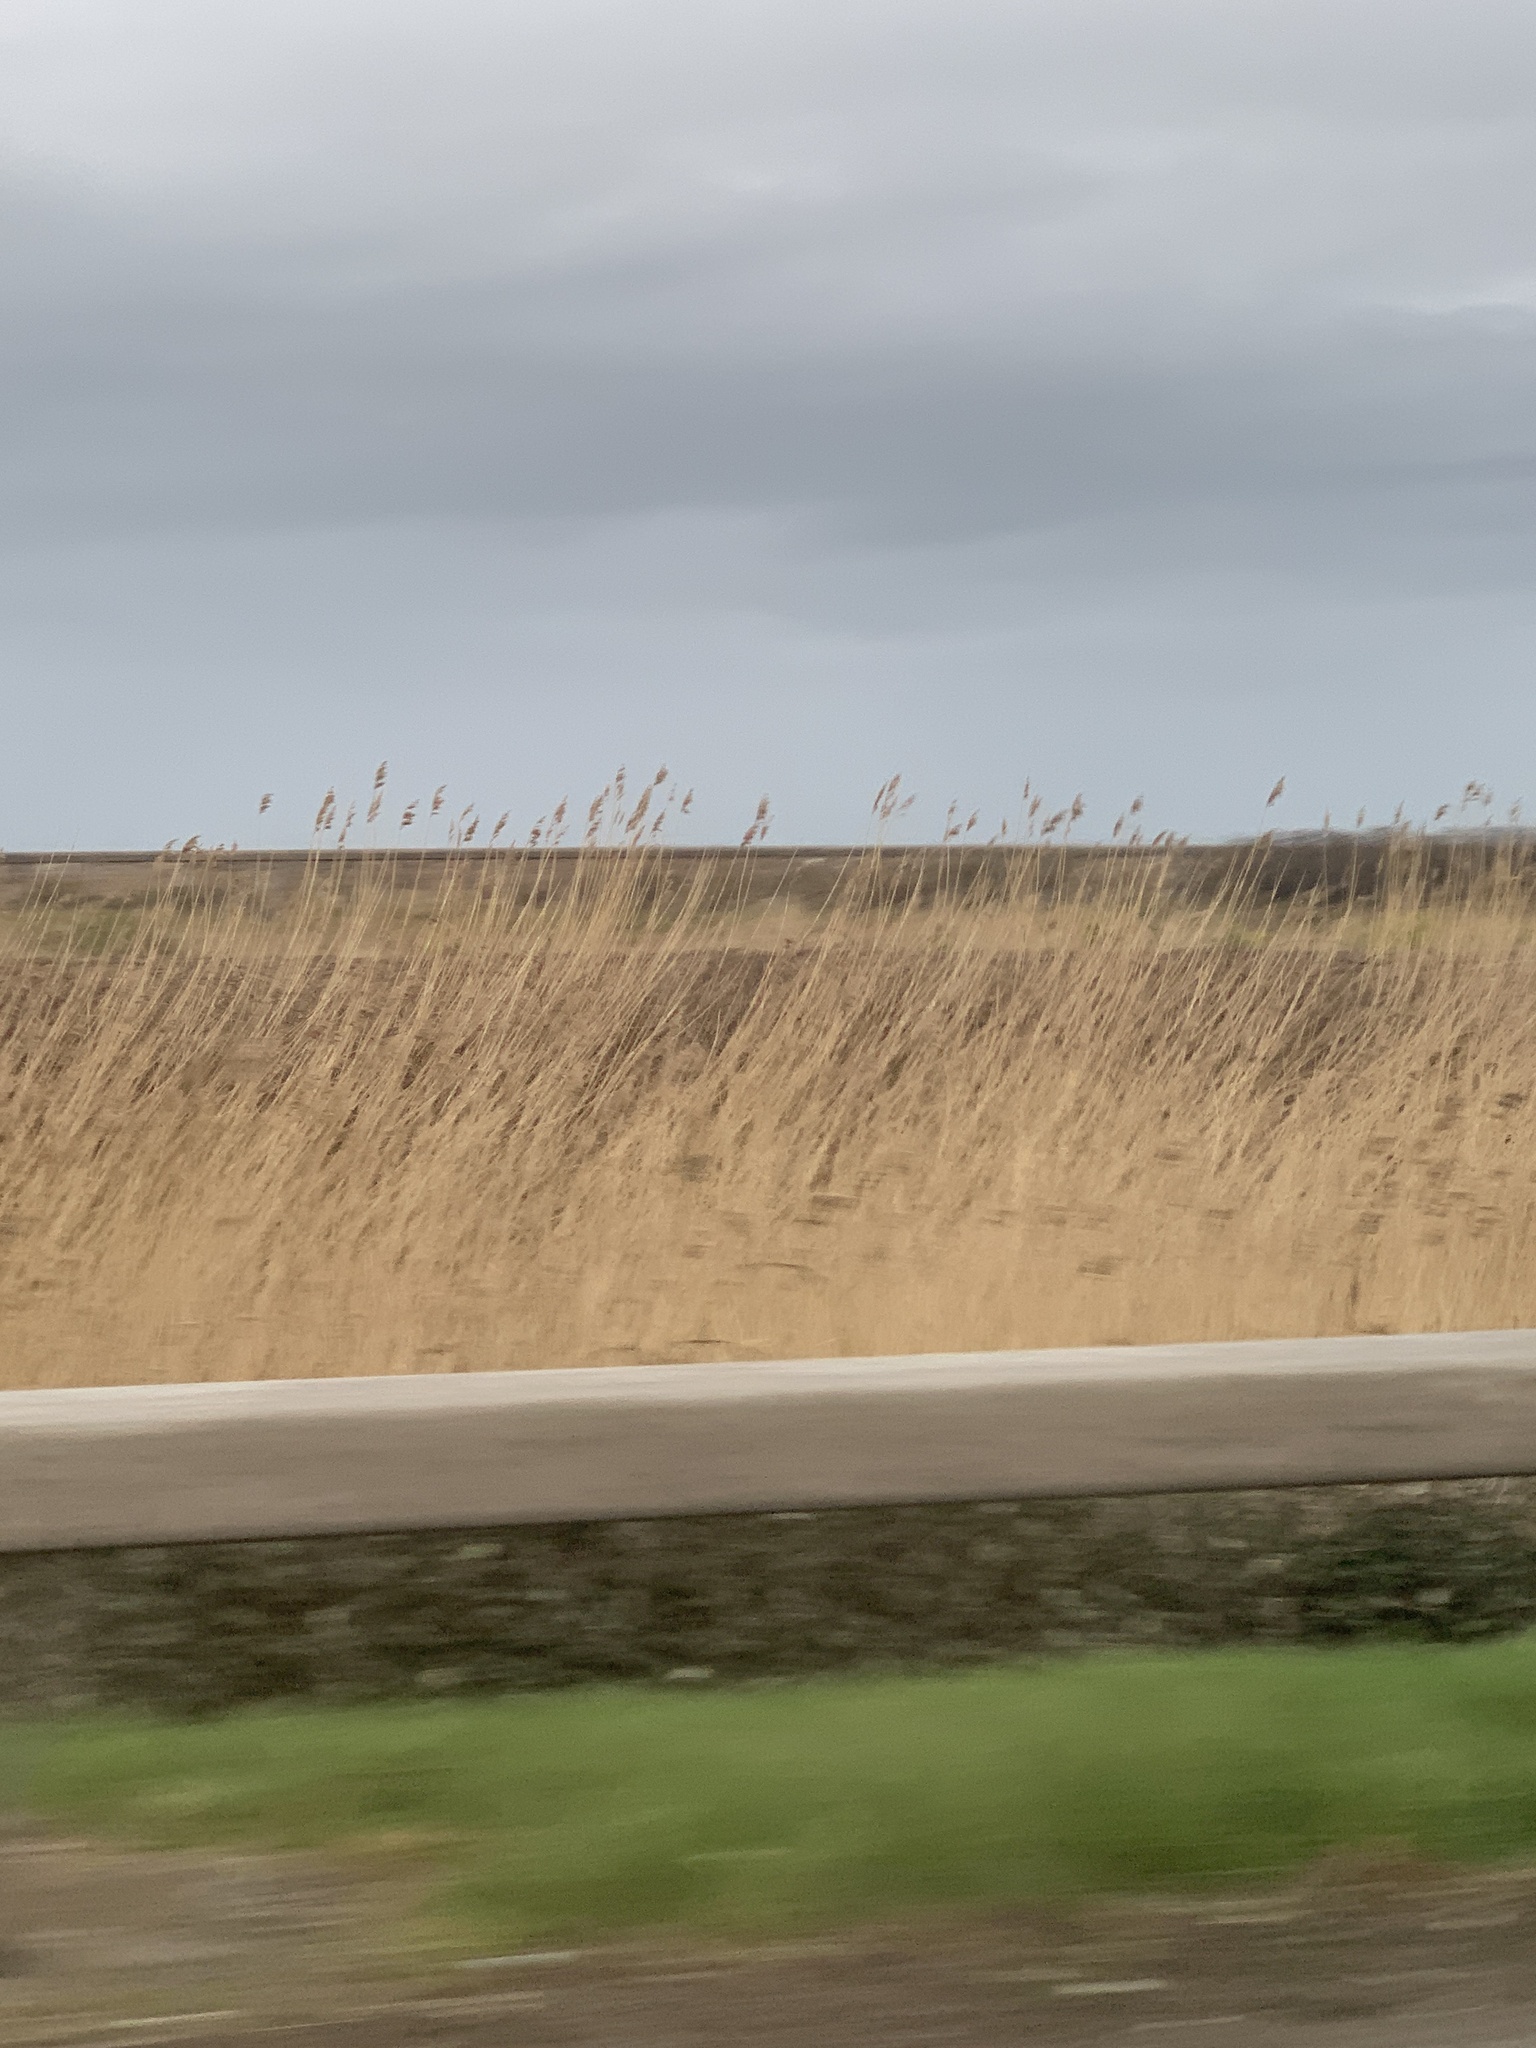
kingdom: Plantae
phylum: Tracheophyta
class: Liliopsida
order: Poales
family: Poaceae
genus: Phragmites
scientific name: Phragmites australis
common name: Common reed
